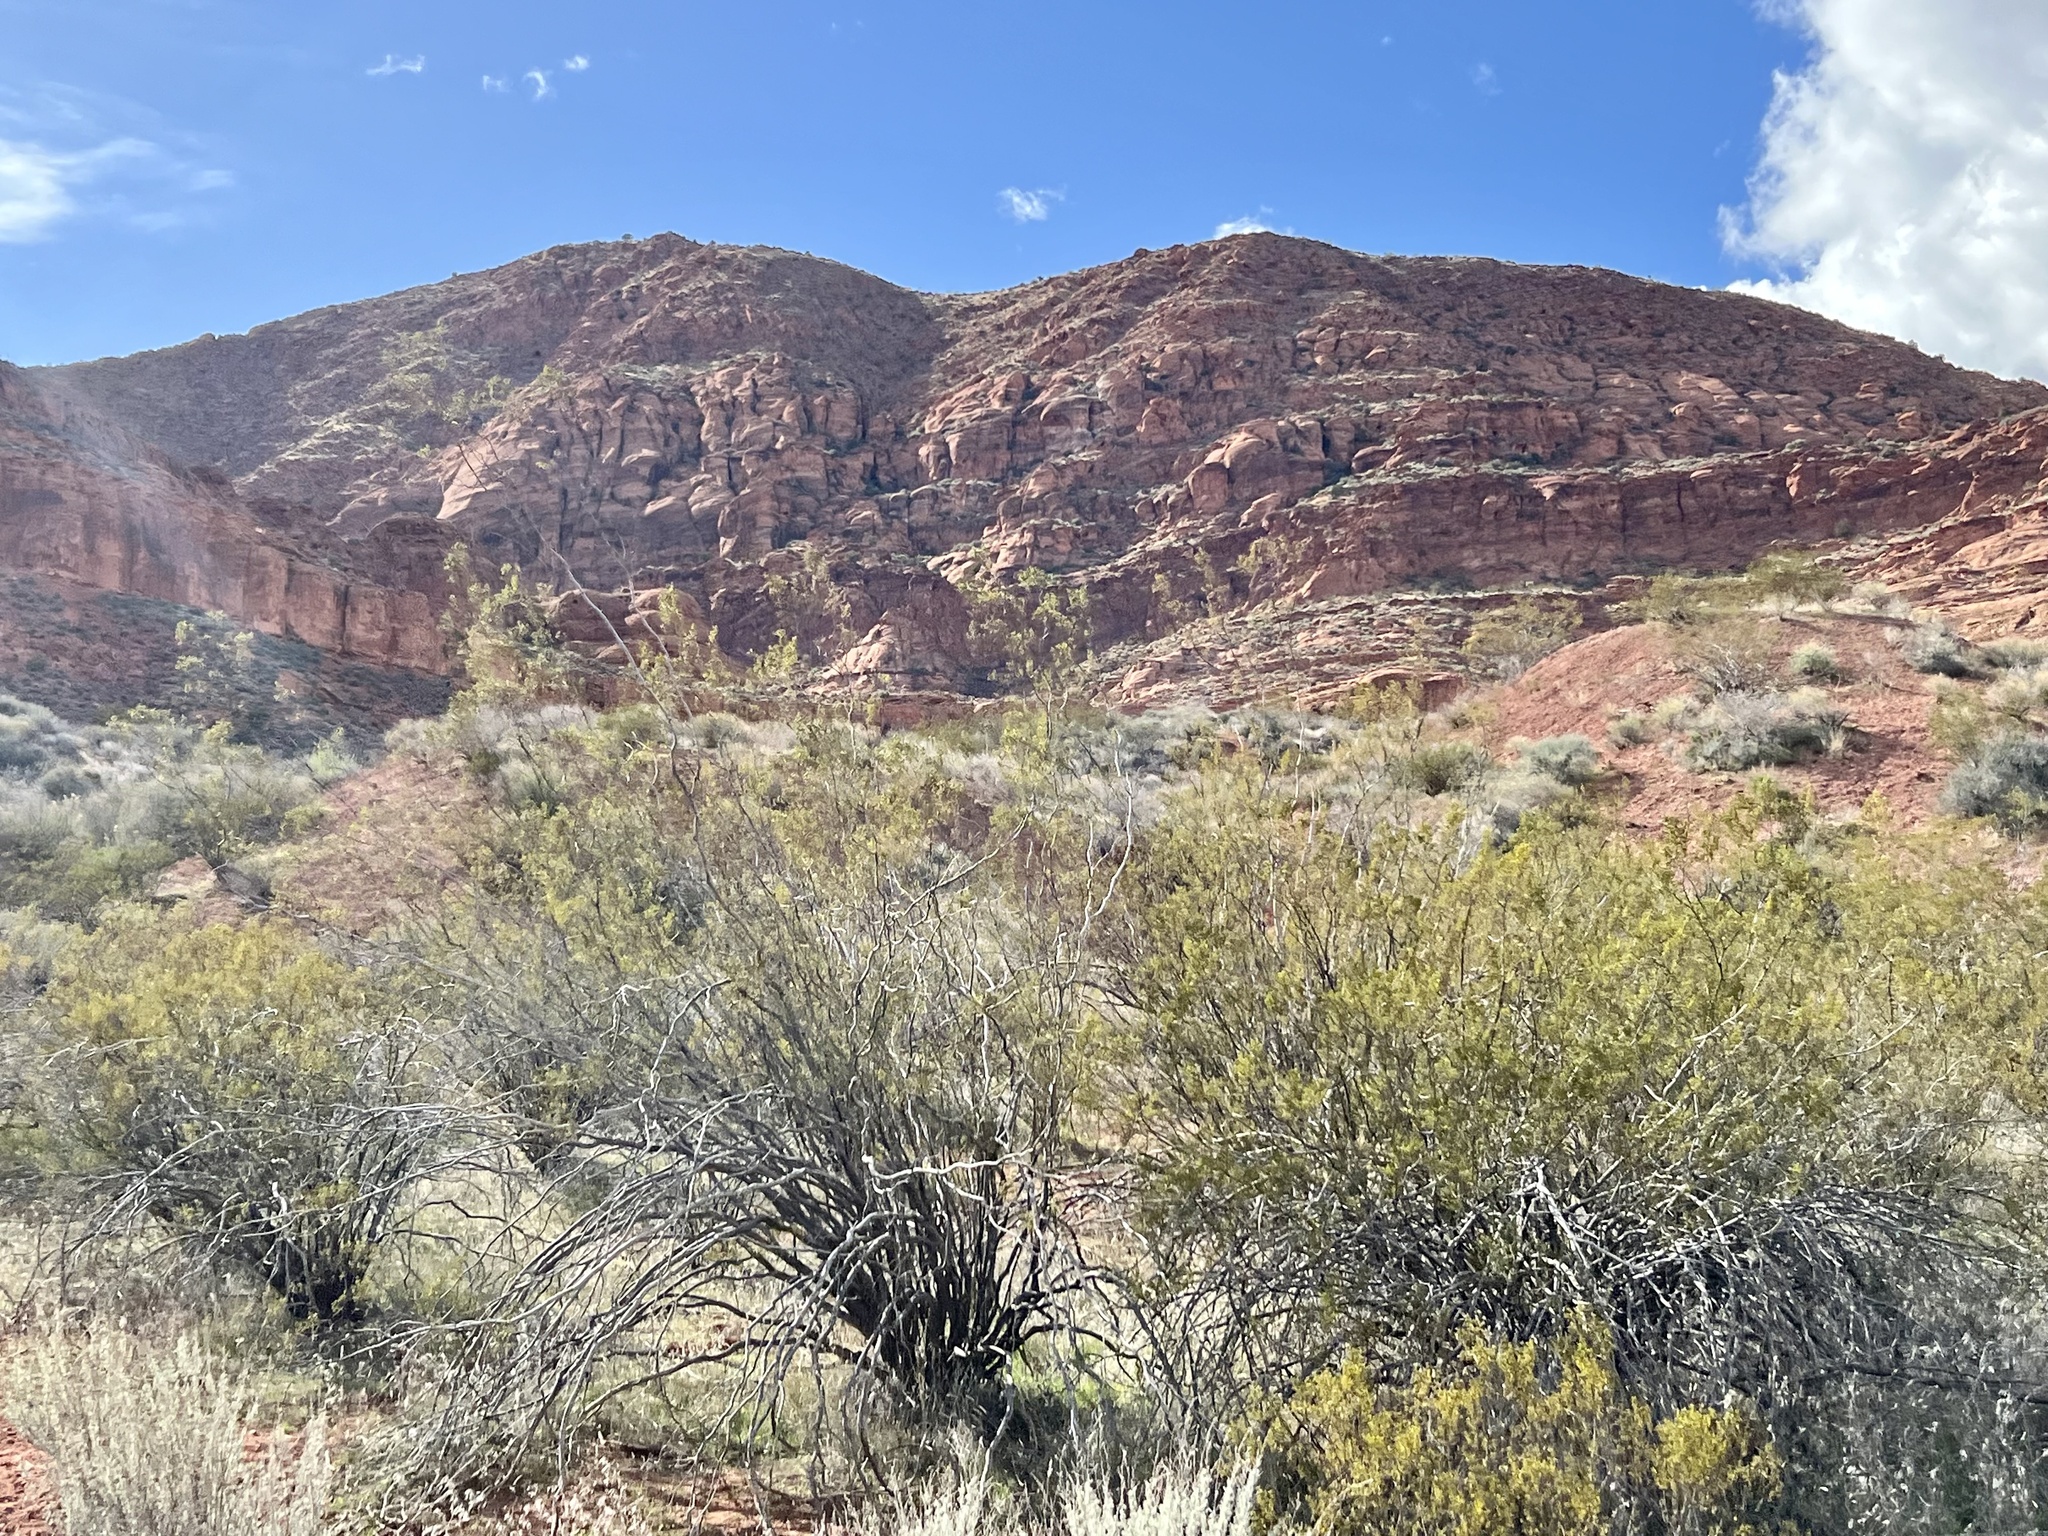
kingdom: Plantae
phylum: Tracheophyta
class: Magnoliopsida
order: Zygophyllales
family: Zygophyllaceae
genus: Larrea
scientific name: Larrea tridentata
